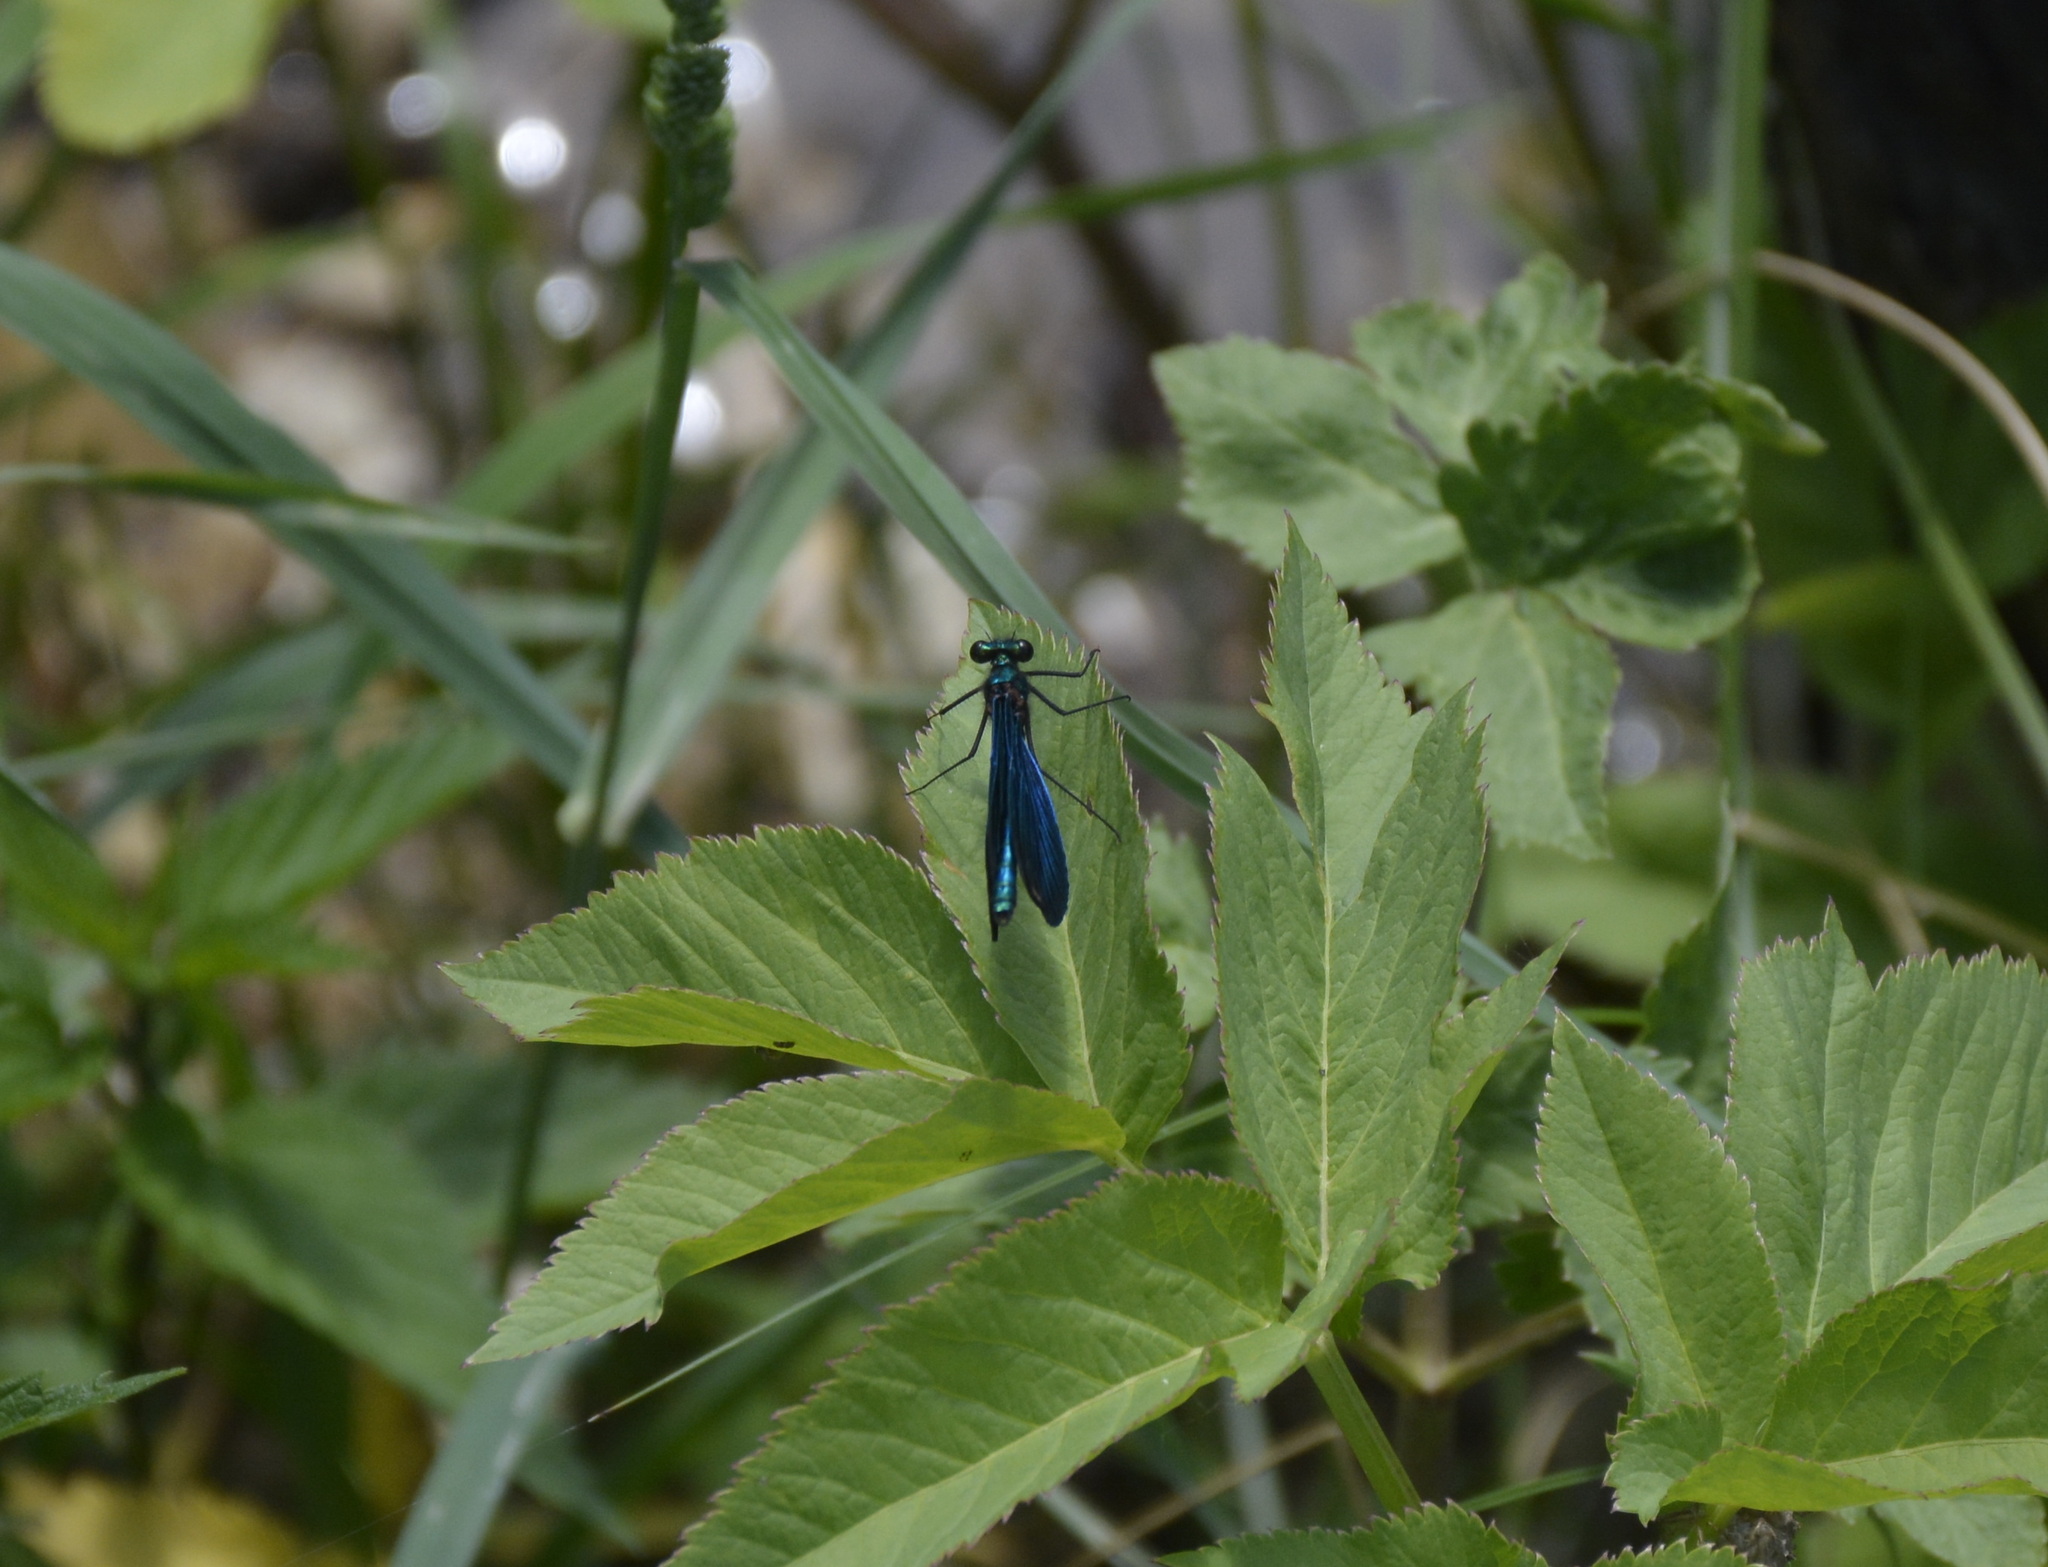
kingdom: Animalia
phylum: Arthropoda
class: Insecta
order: Odonata
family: Calopterygidae
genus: Calopteryx
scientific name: Calopteryx virgo
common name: Beautiful demoiselle
